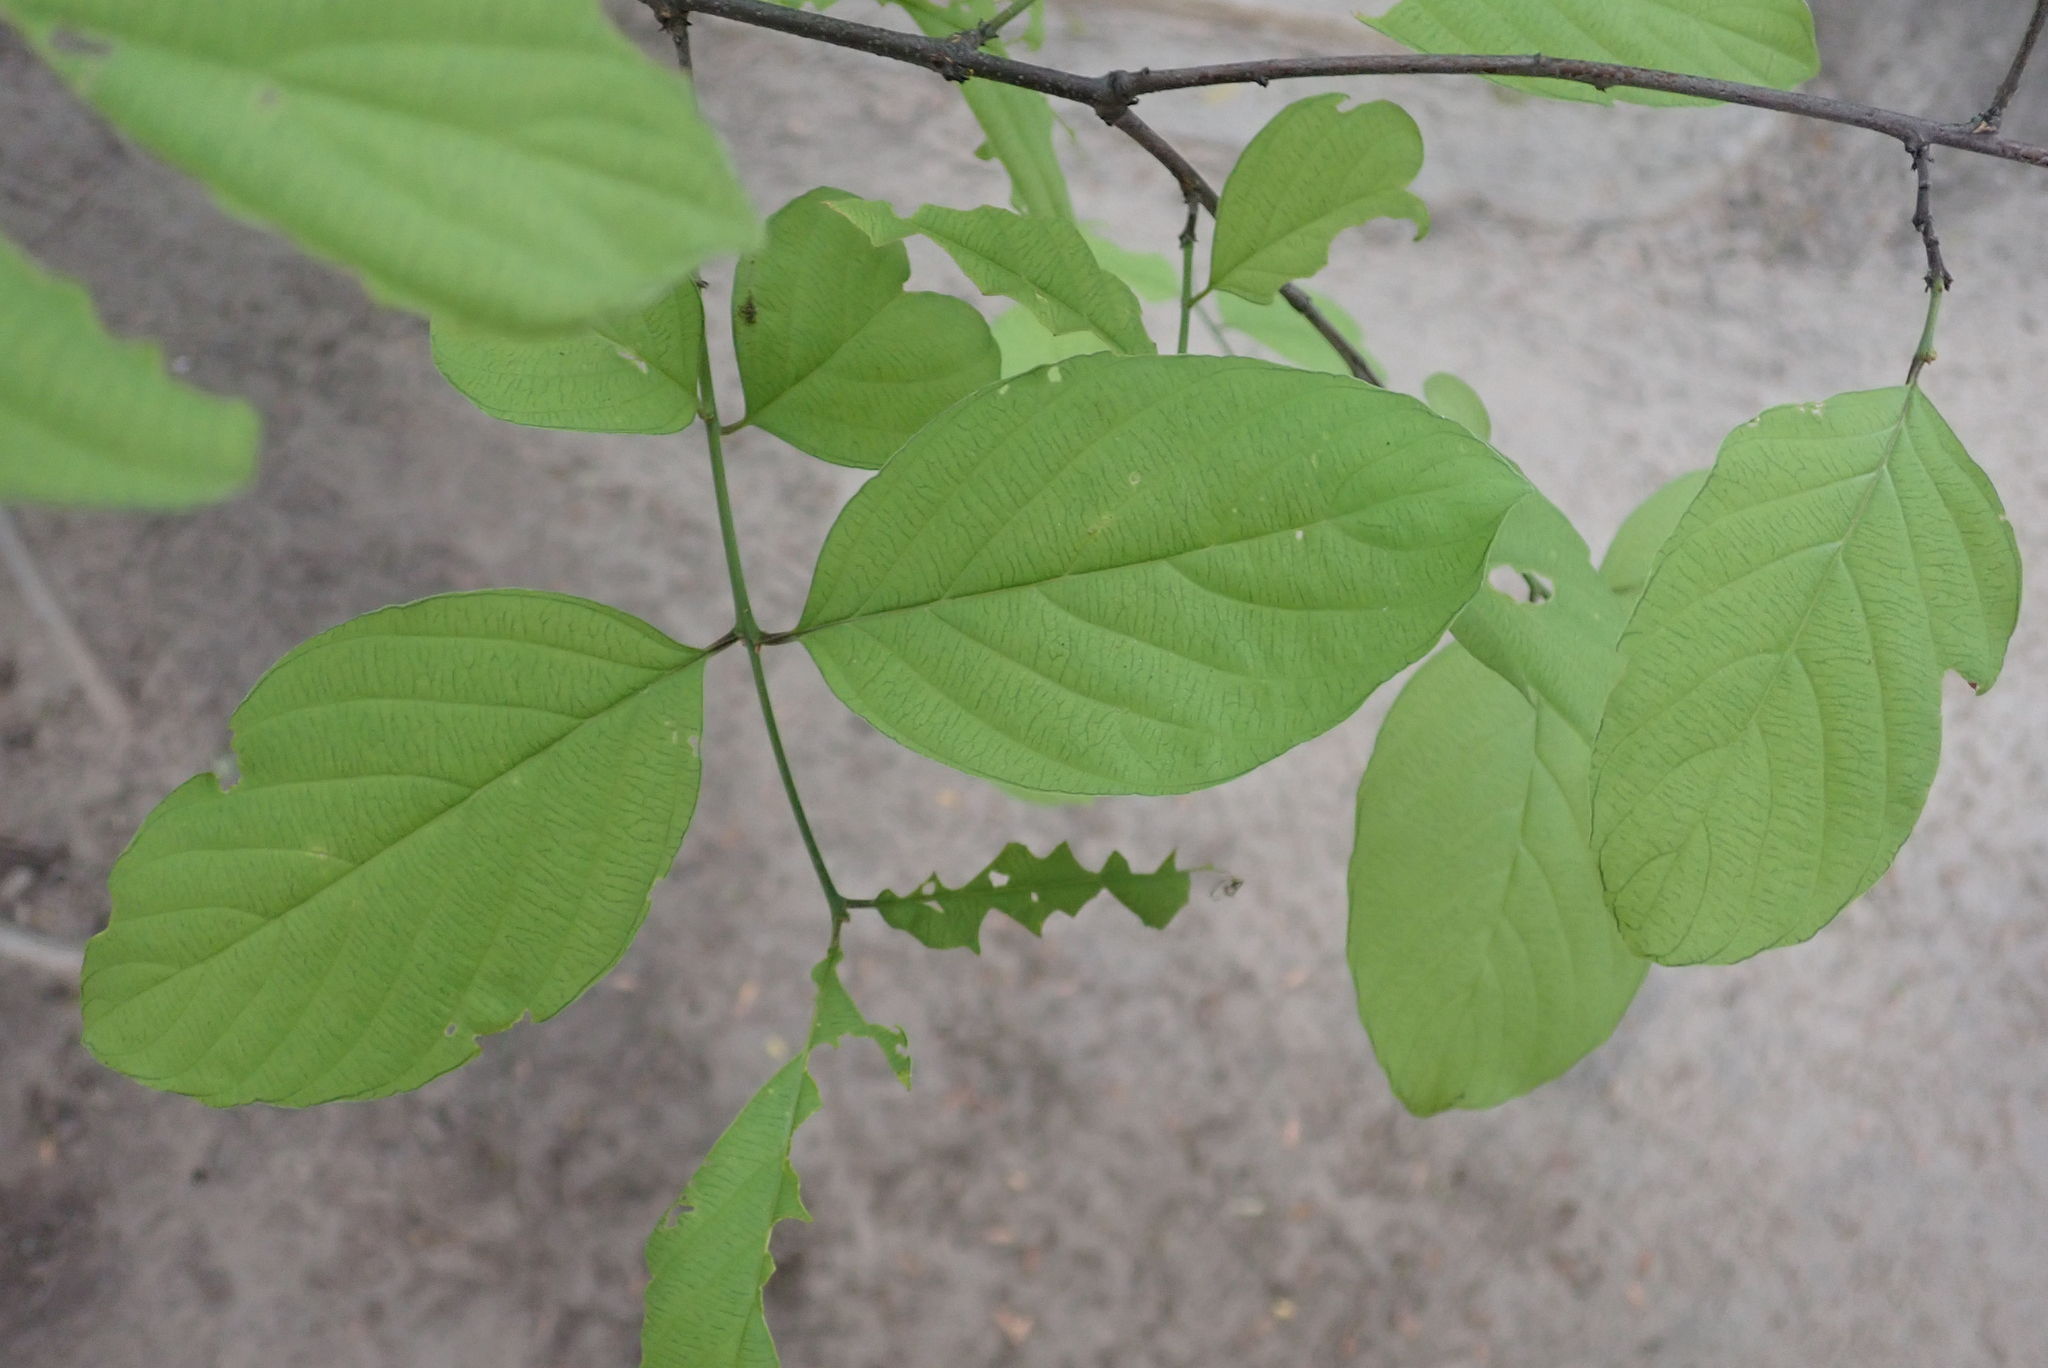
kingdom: Plantae
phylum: Tracheophyta
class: Magnoliopsida
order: Rosales
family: Rhamnaceae
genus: Phyllogeiton
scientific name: Phyllogeiton discolor
